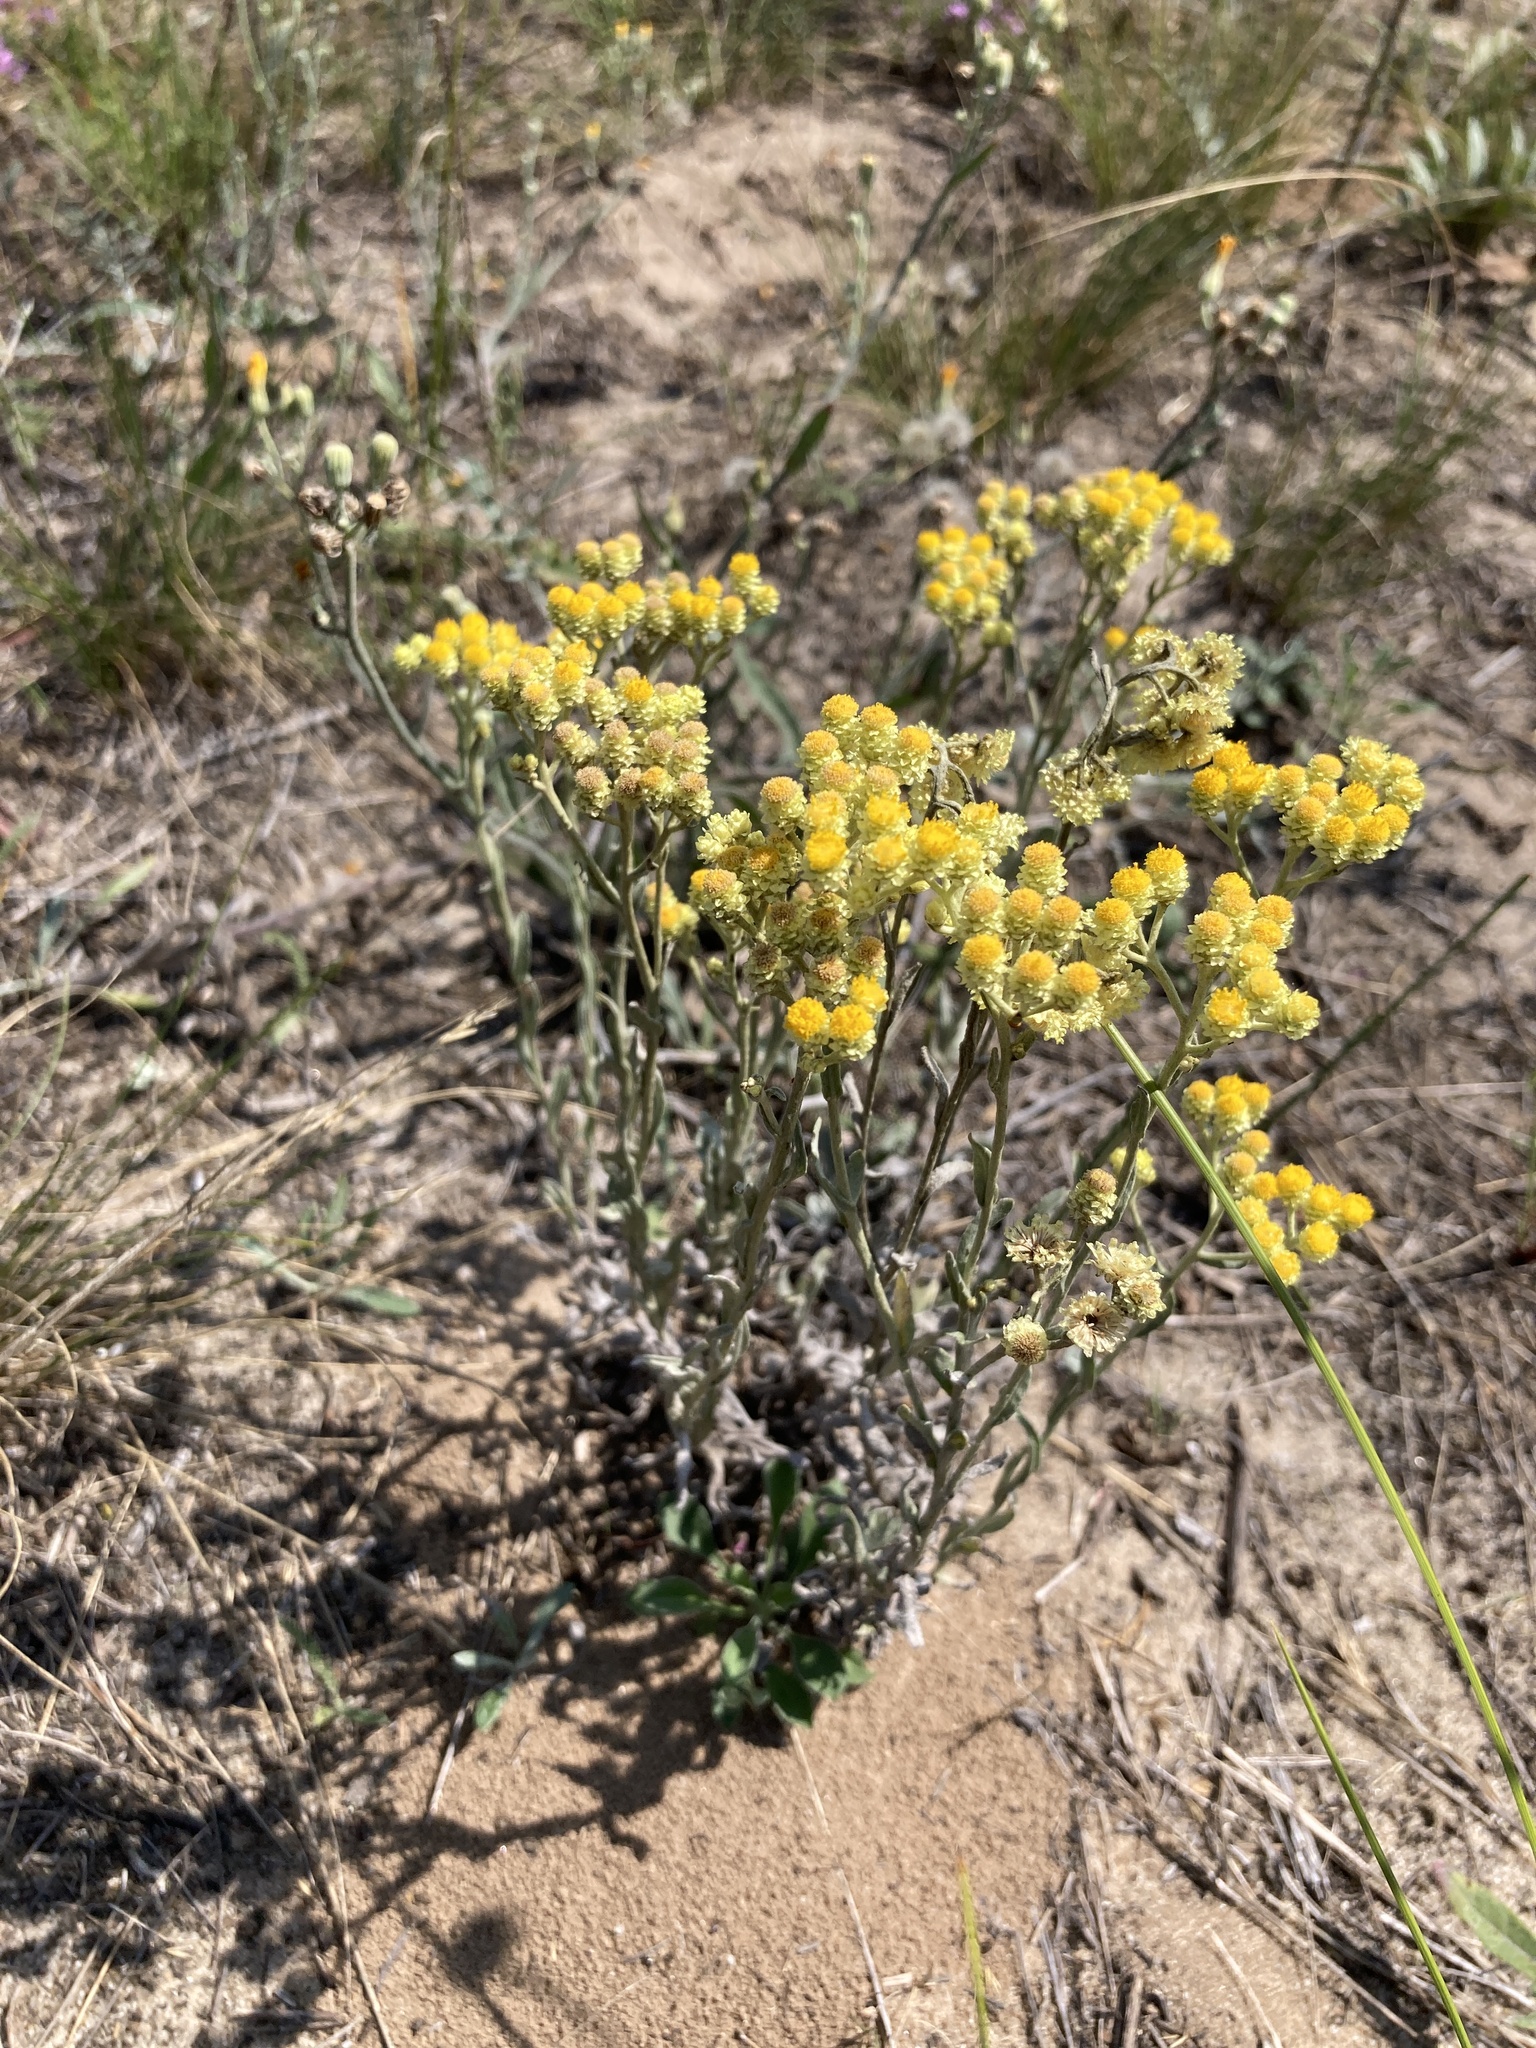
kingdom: Plantae
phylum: Tracheophyta
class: Magnoliopsida
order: Asterales
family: Asteraceae
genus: Helichrysum
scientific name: Helichrysum arenarium
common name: Strawflower
